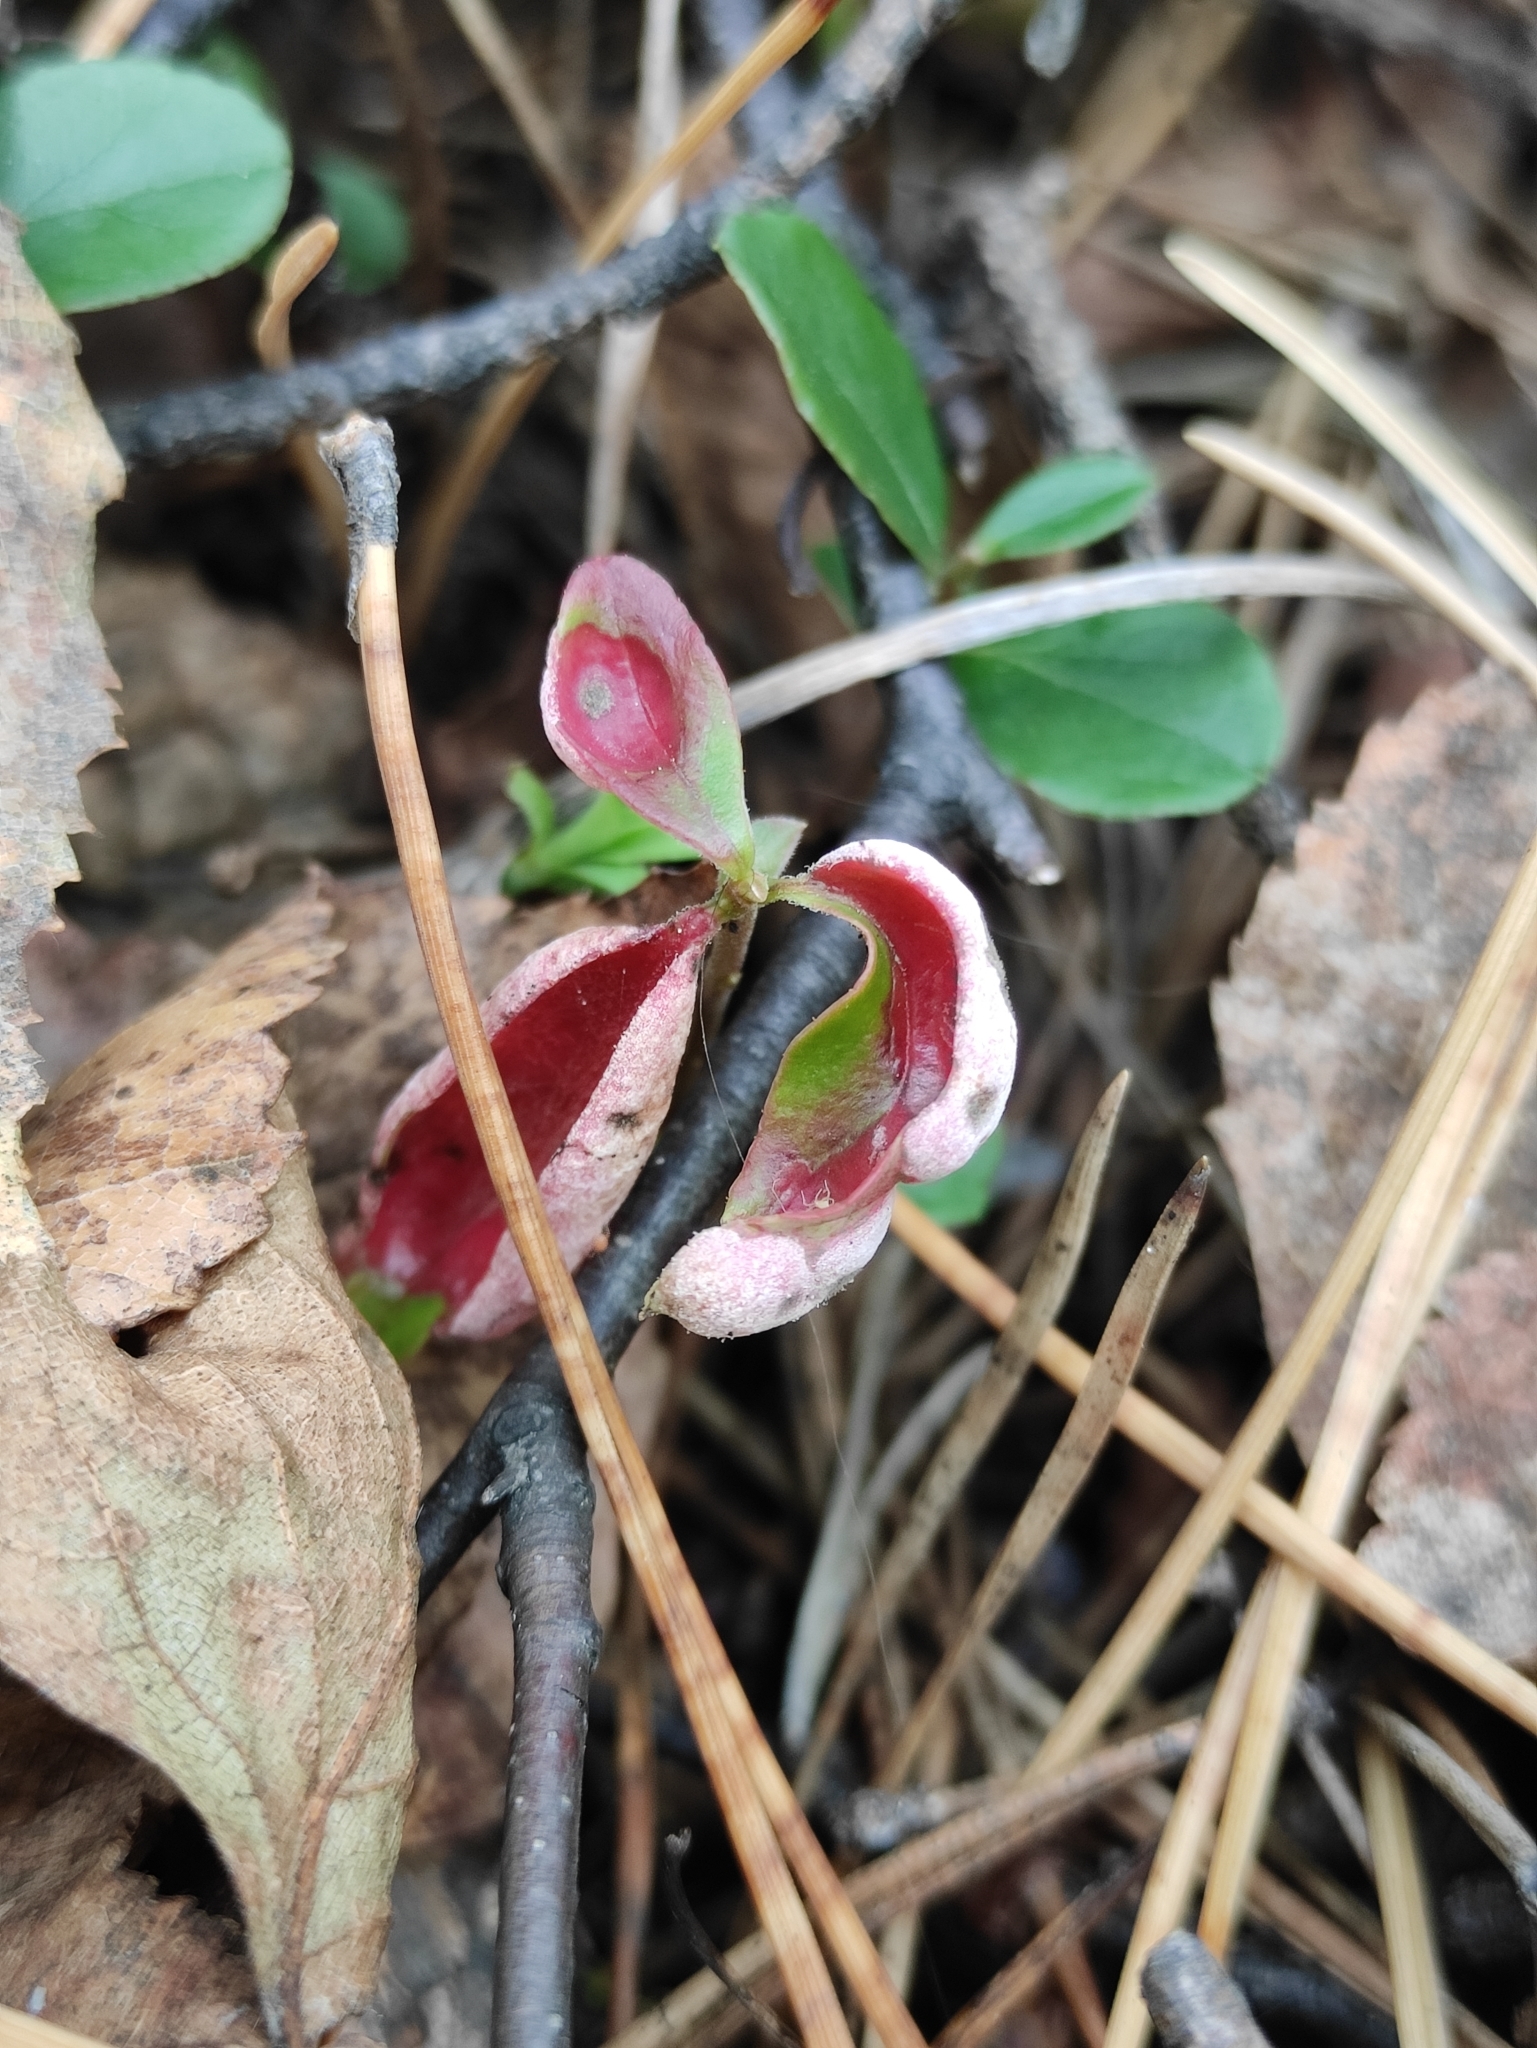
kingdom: Fungi
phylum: Basidiomycota
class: Exobasidiomycetes
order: Exobasidiales
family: Exobasidiaceae
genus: Exobasidium
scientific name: Exobasidium vaccinii
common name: Cowberry redleaf
